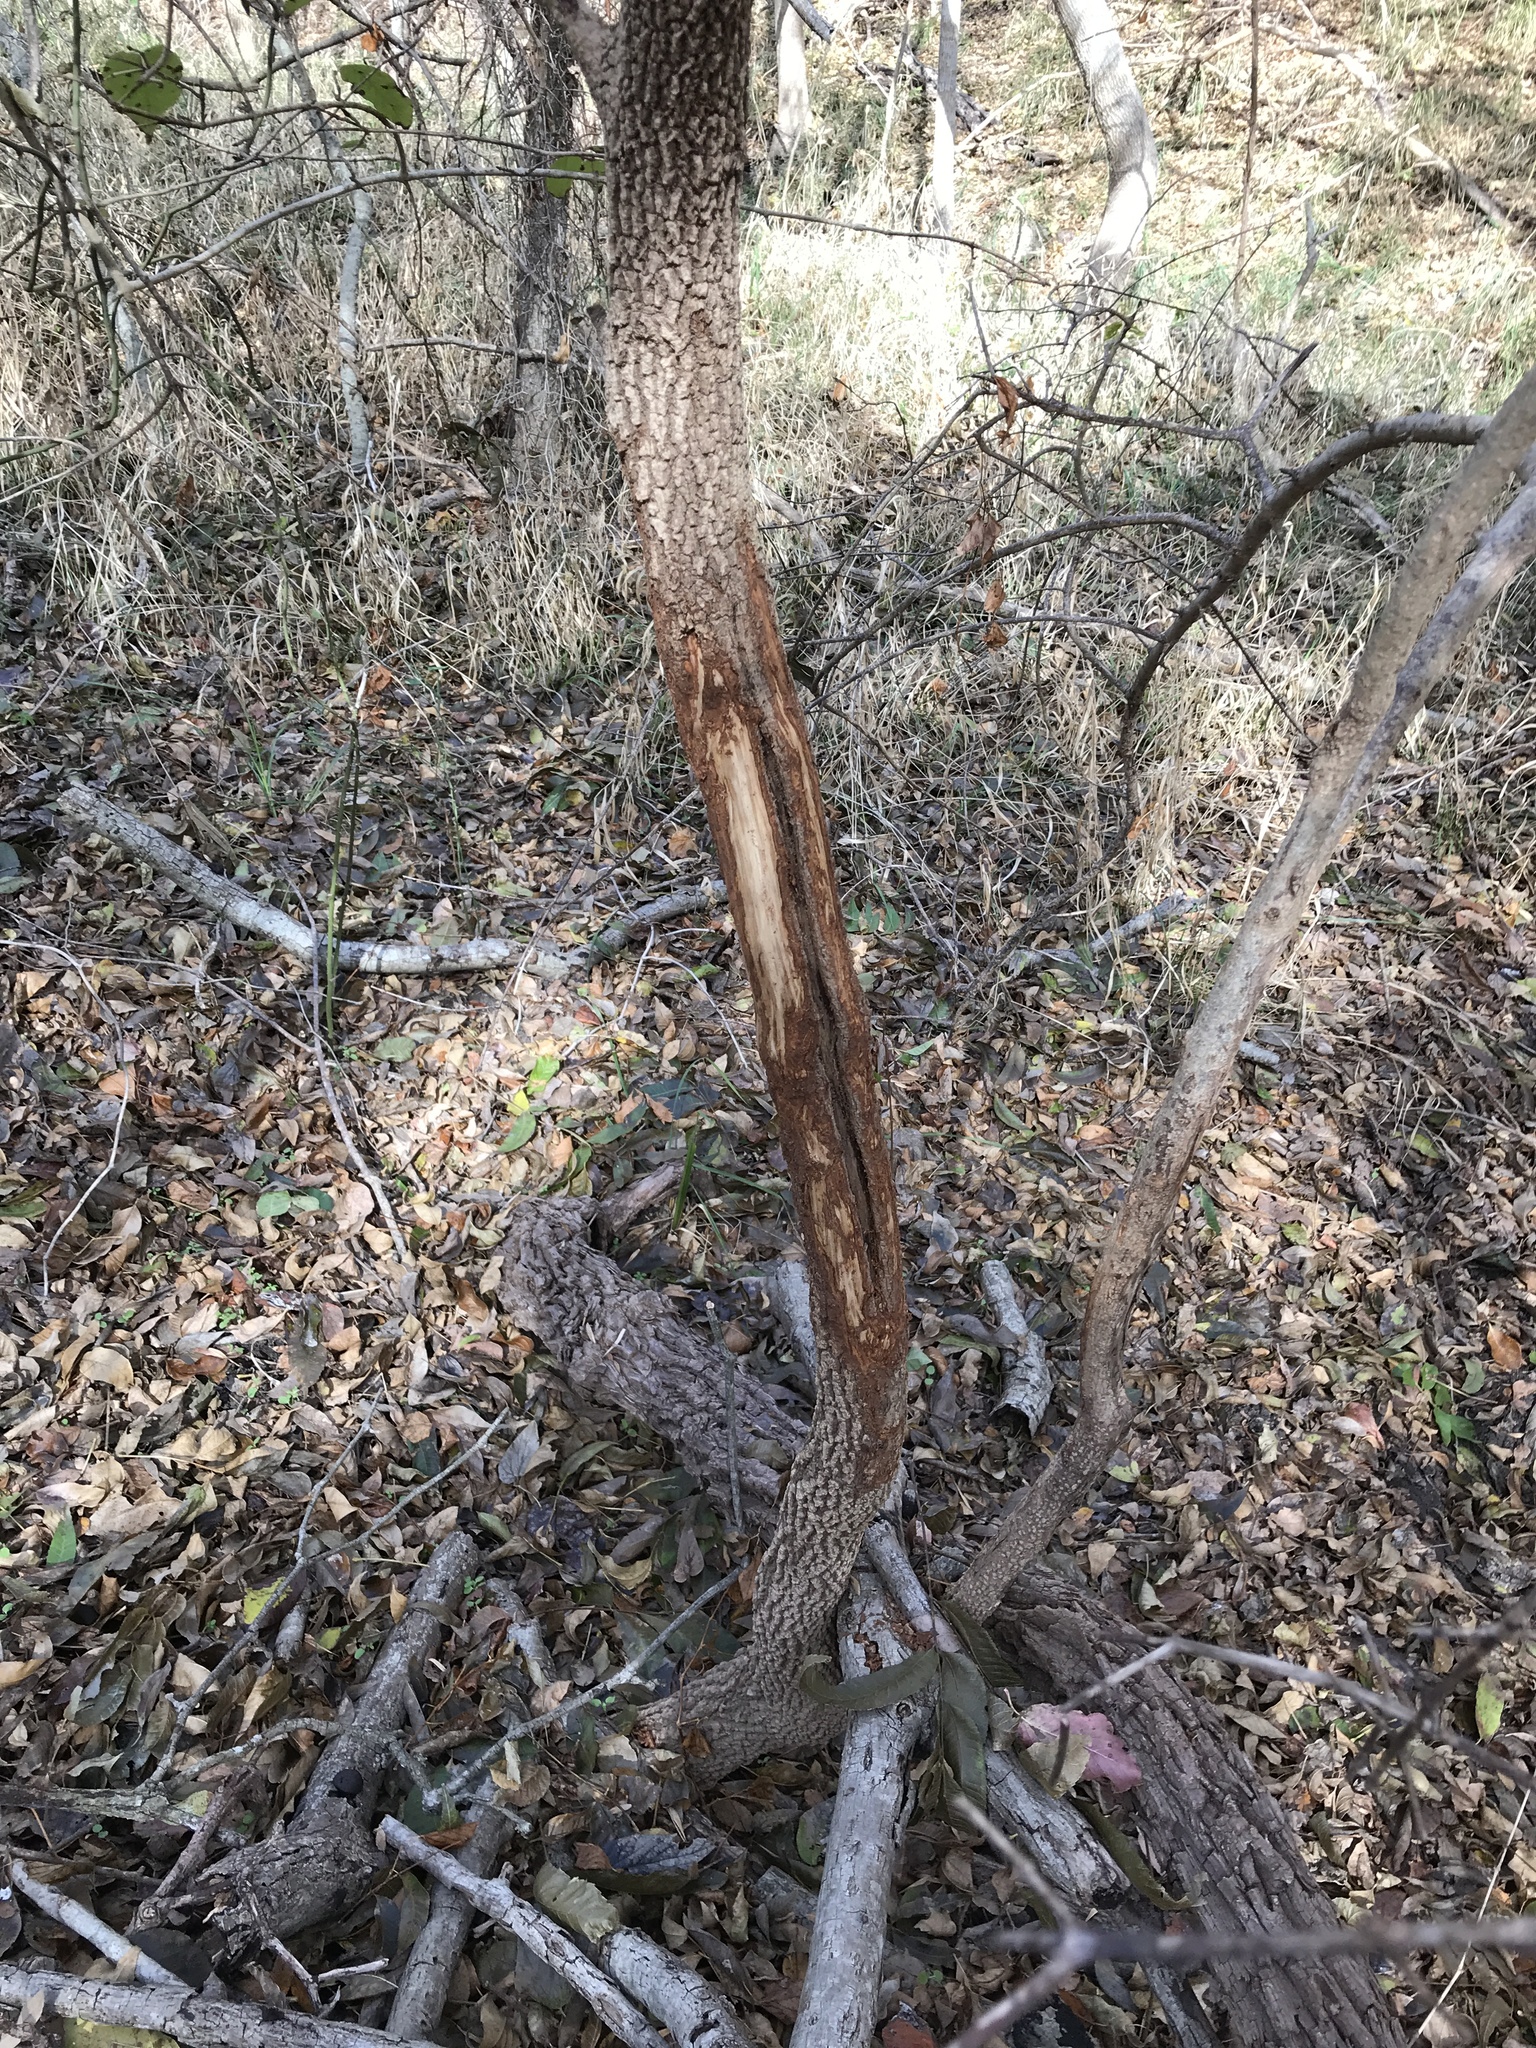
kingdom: Animalia
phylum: Chordata
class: Mammalia
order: Artiodactyla
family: Cervidae
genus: Odocoileus
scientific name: Odocoileus virginianus
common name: White-tailed deer
